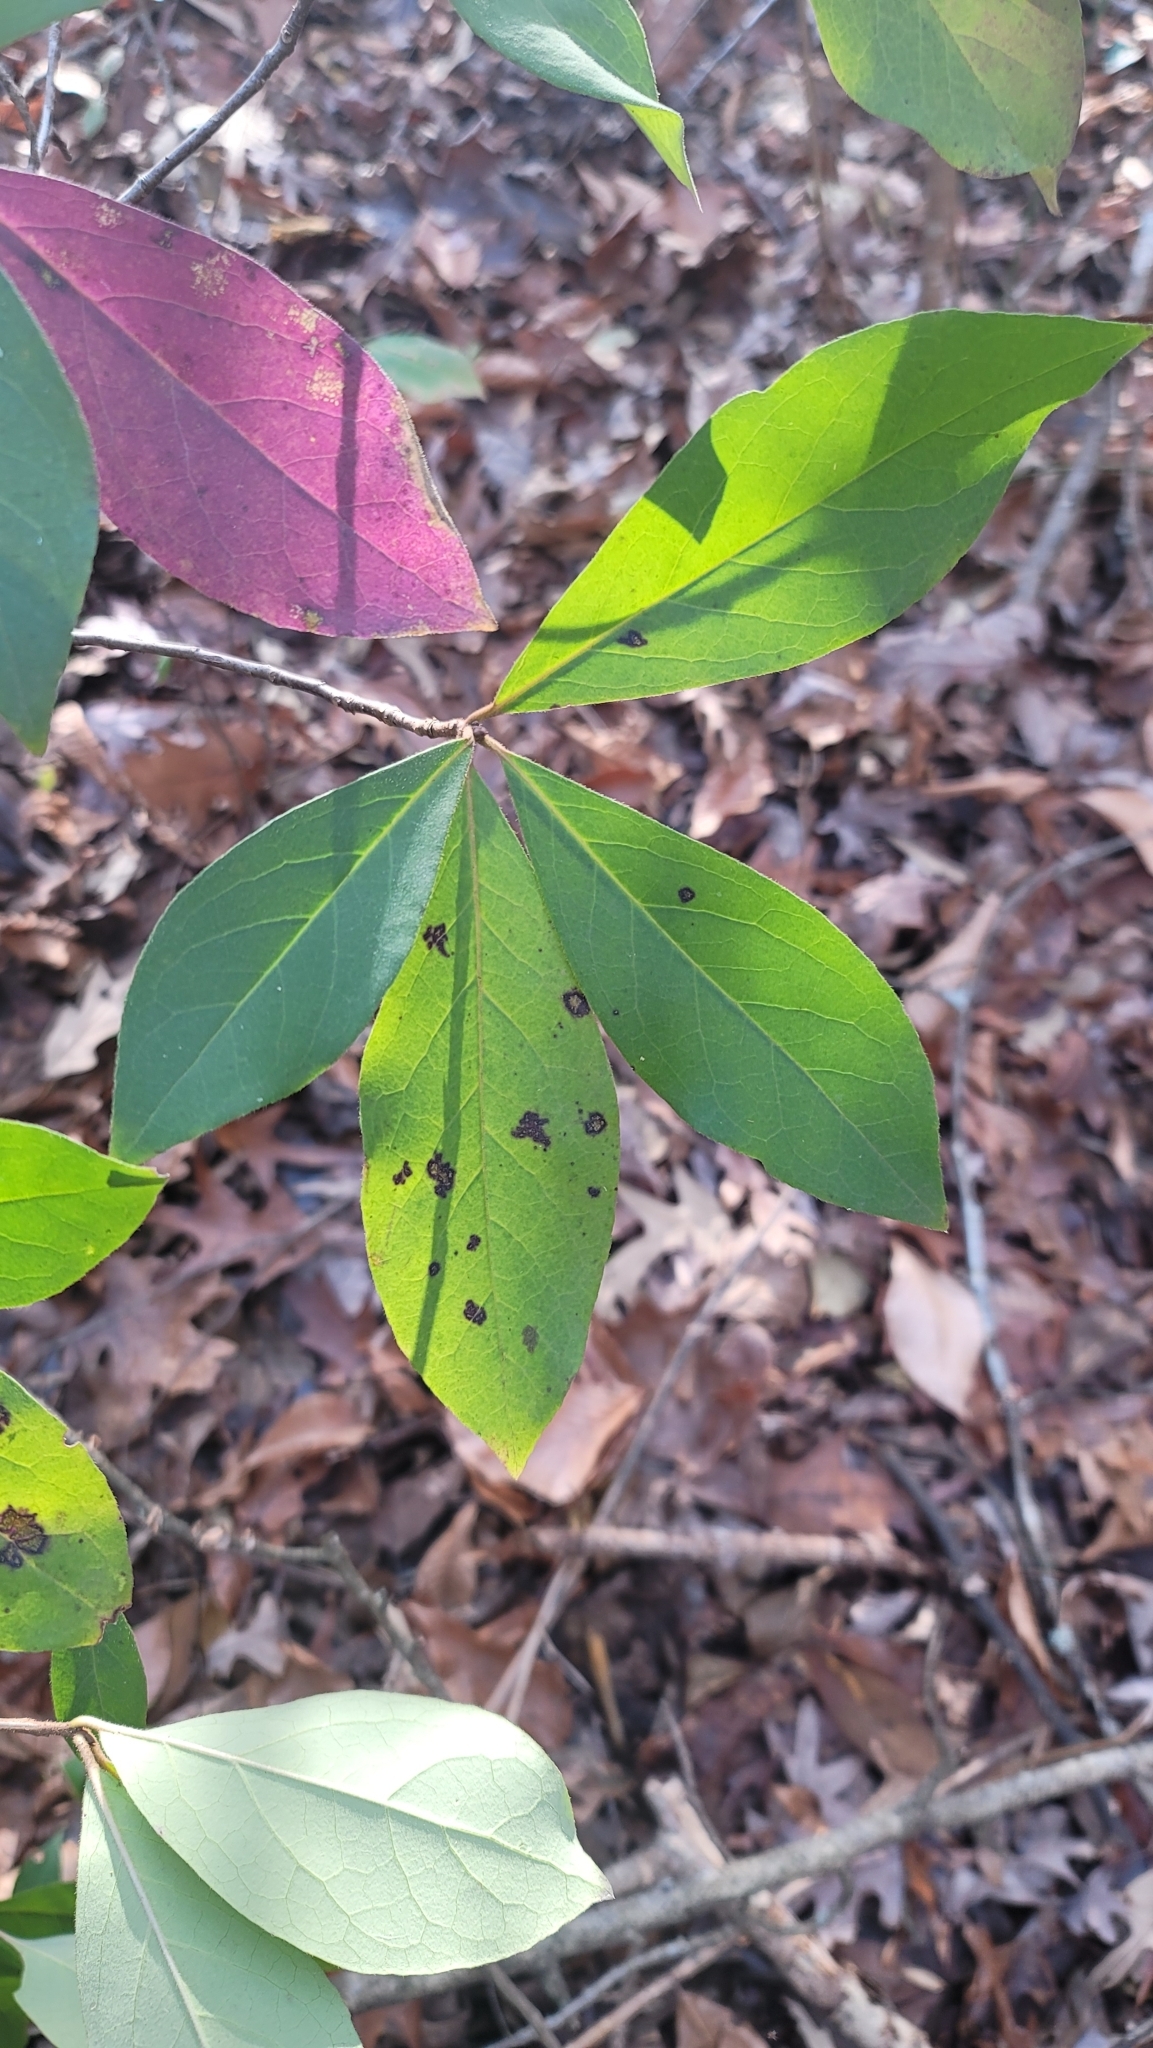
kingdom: Plantae
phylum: Tracheophyta
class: Magnoliopsida
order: Ericales
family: Symplocaceae
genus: Symplocos
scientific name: Symplocos tinctoria
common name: Horse-sugar
